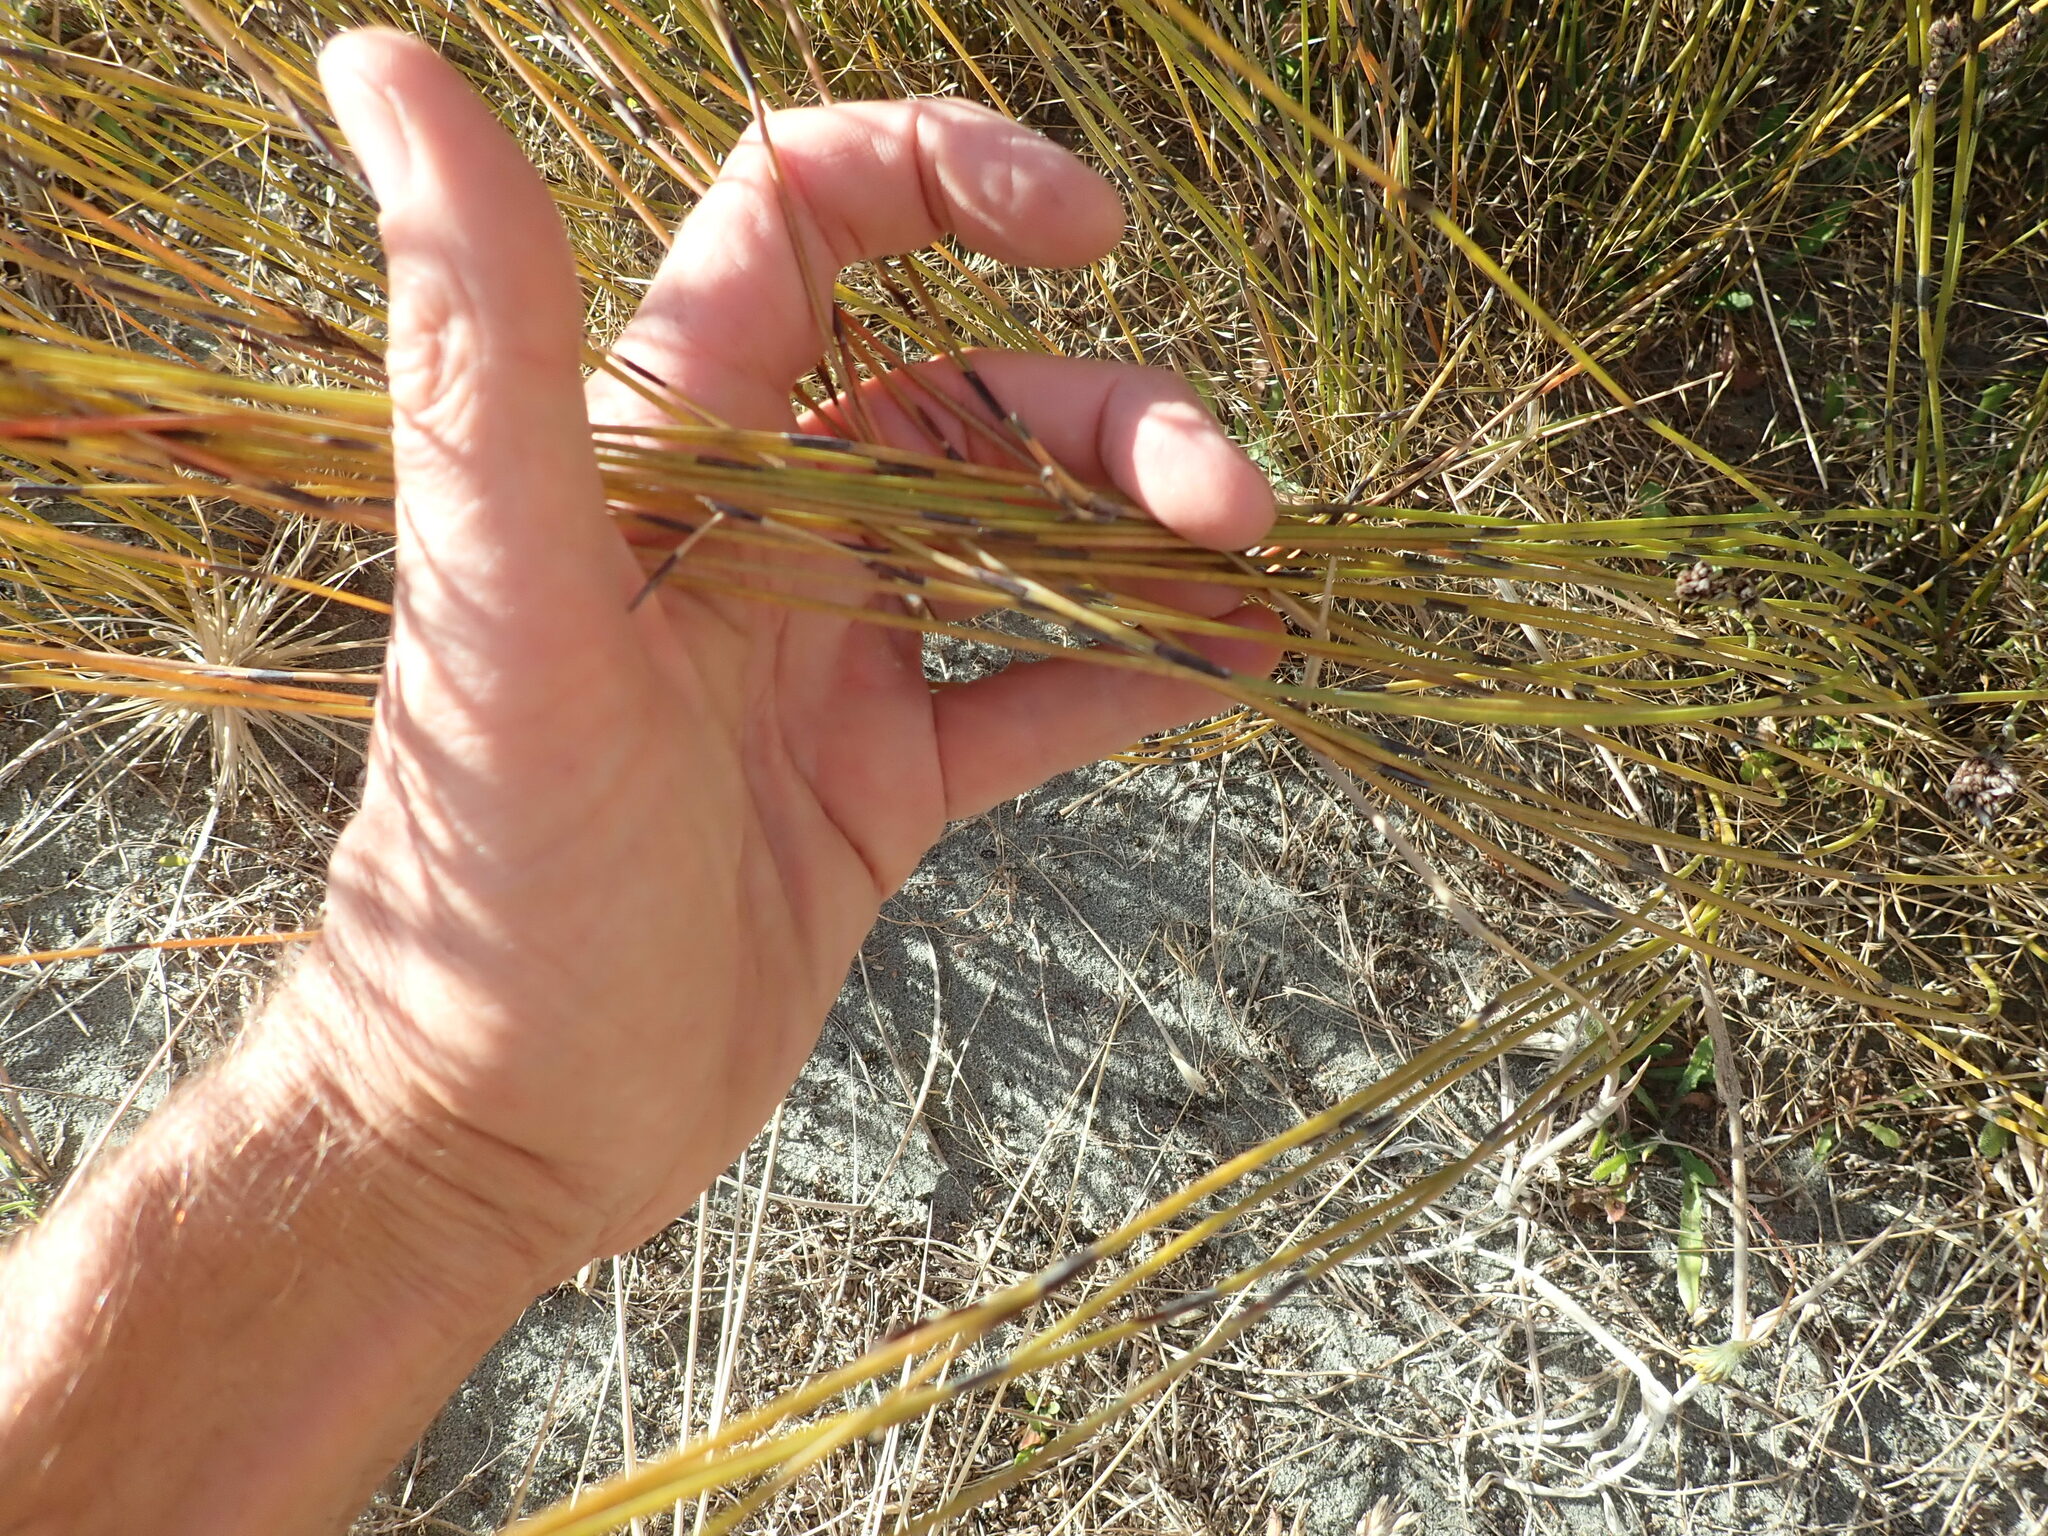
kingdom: Plantae
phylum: Tracheophyta
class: Liliopsida
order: Poales
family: Restionaceae
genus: Apodasmia
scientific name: Apodasmia similis
